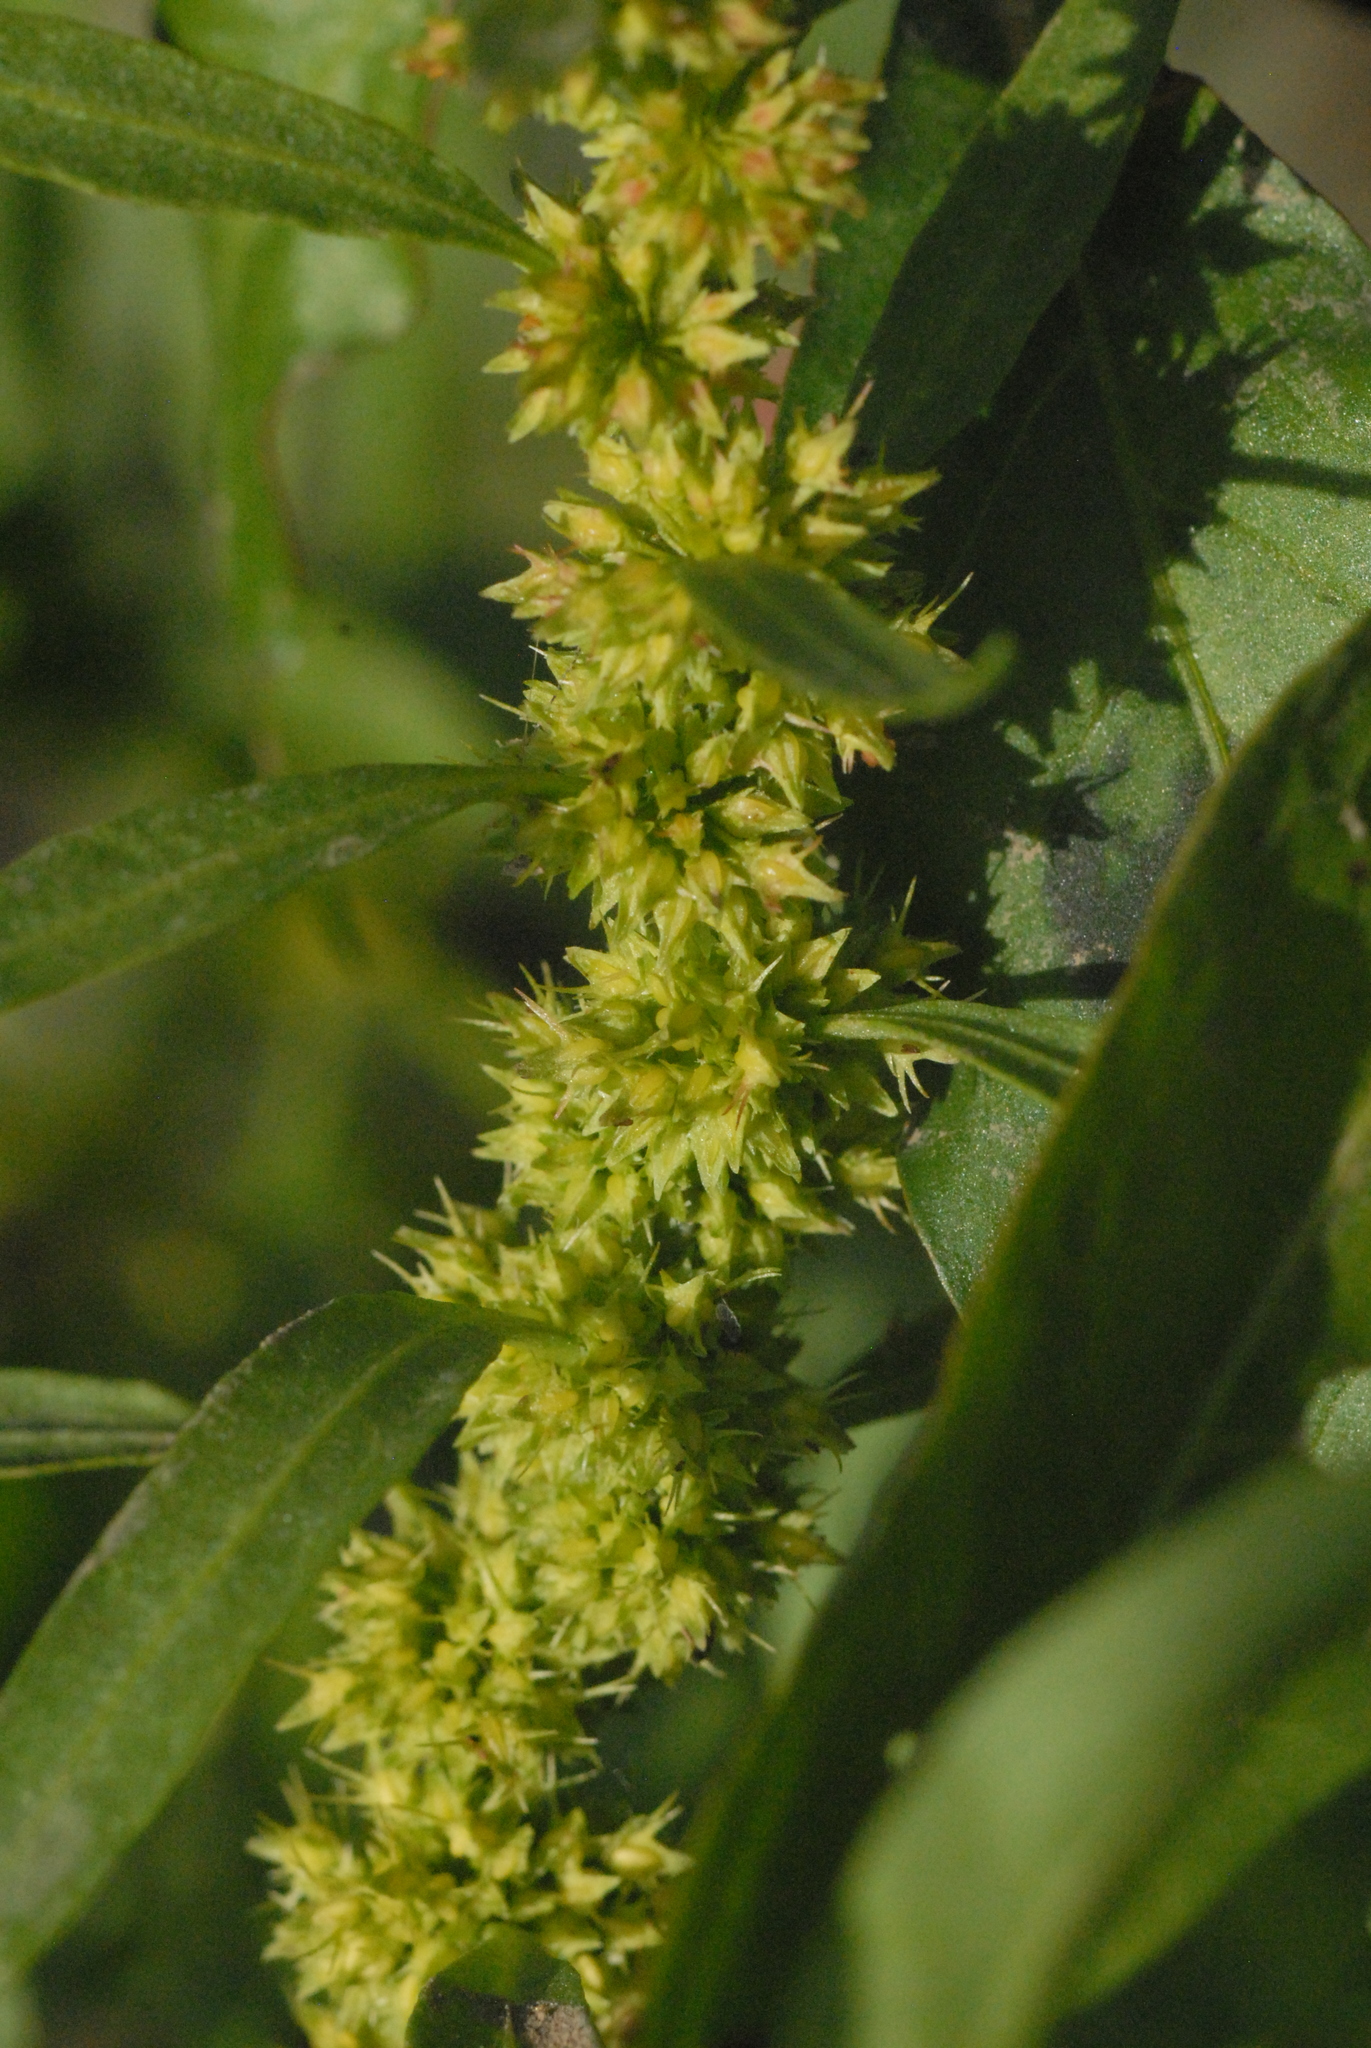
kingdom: Plantae
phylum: Tracheophyta
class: Magnoliopsida
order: Caryophyllales
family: Polygonaceae
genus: Rumex
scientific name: Rumex maritimus
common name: Golden dock
